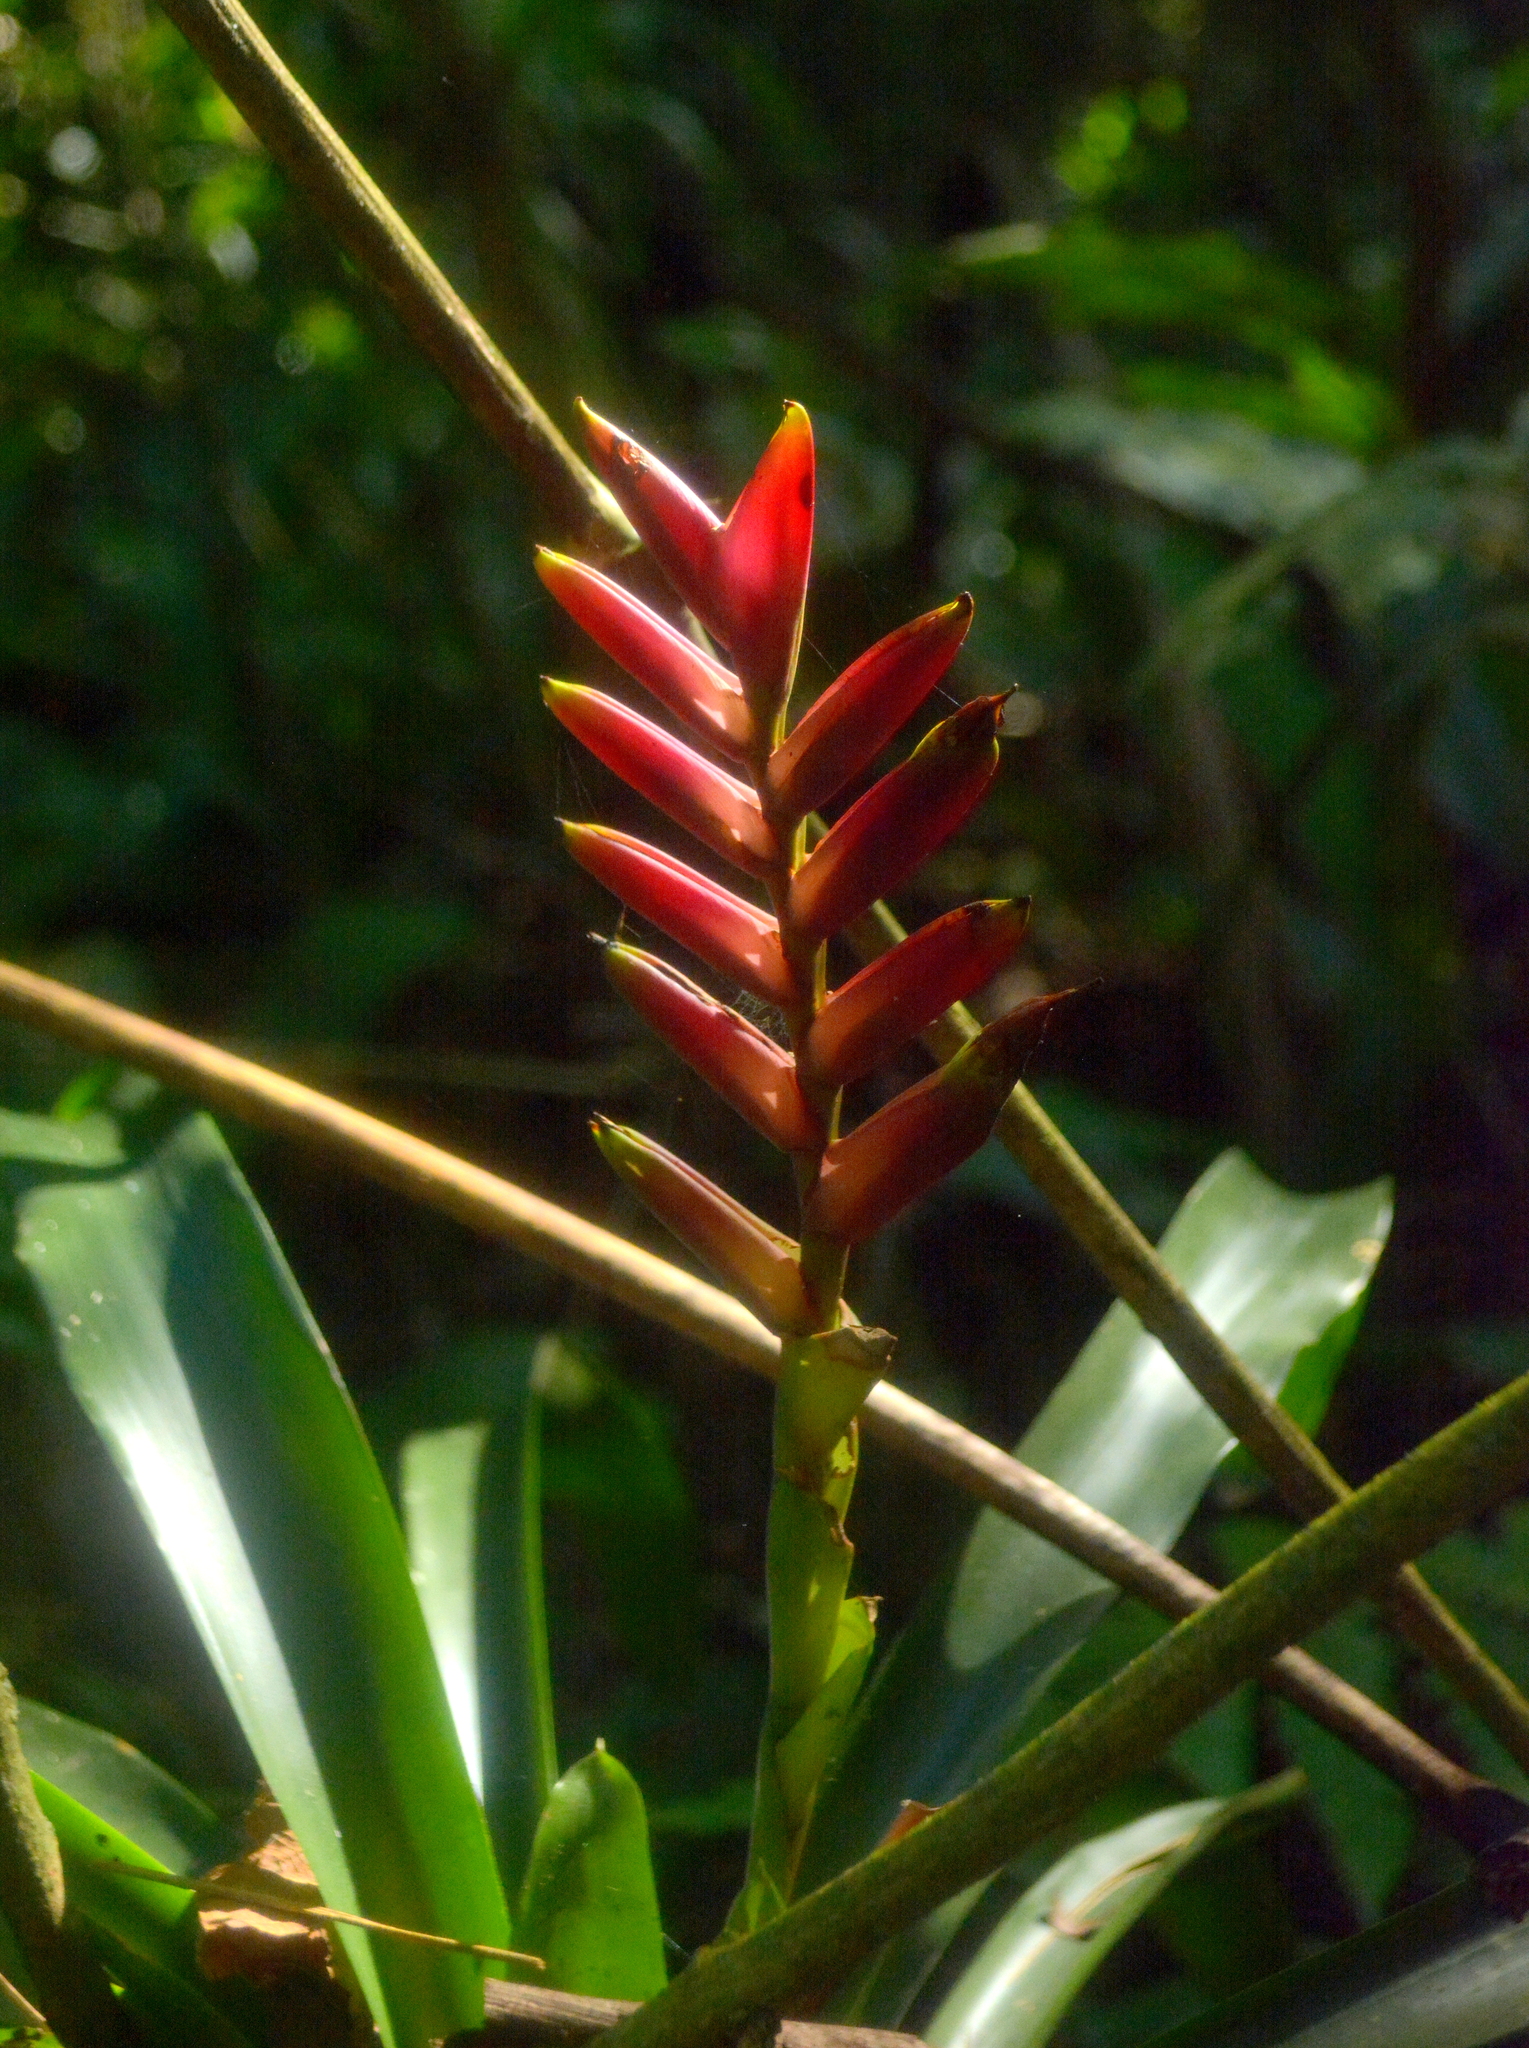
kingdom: Plantae
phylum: Tracheophyta
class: Liliopsida
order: Poales
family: Bromeliaceae
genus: Vriesea
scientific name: Vriesea ensiformis
